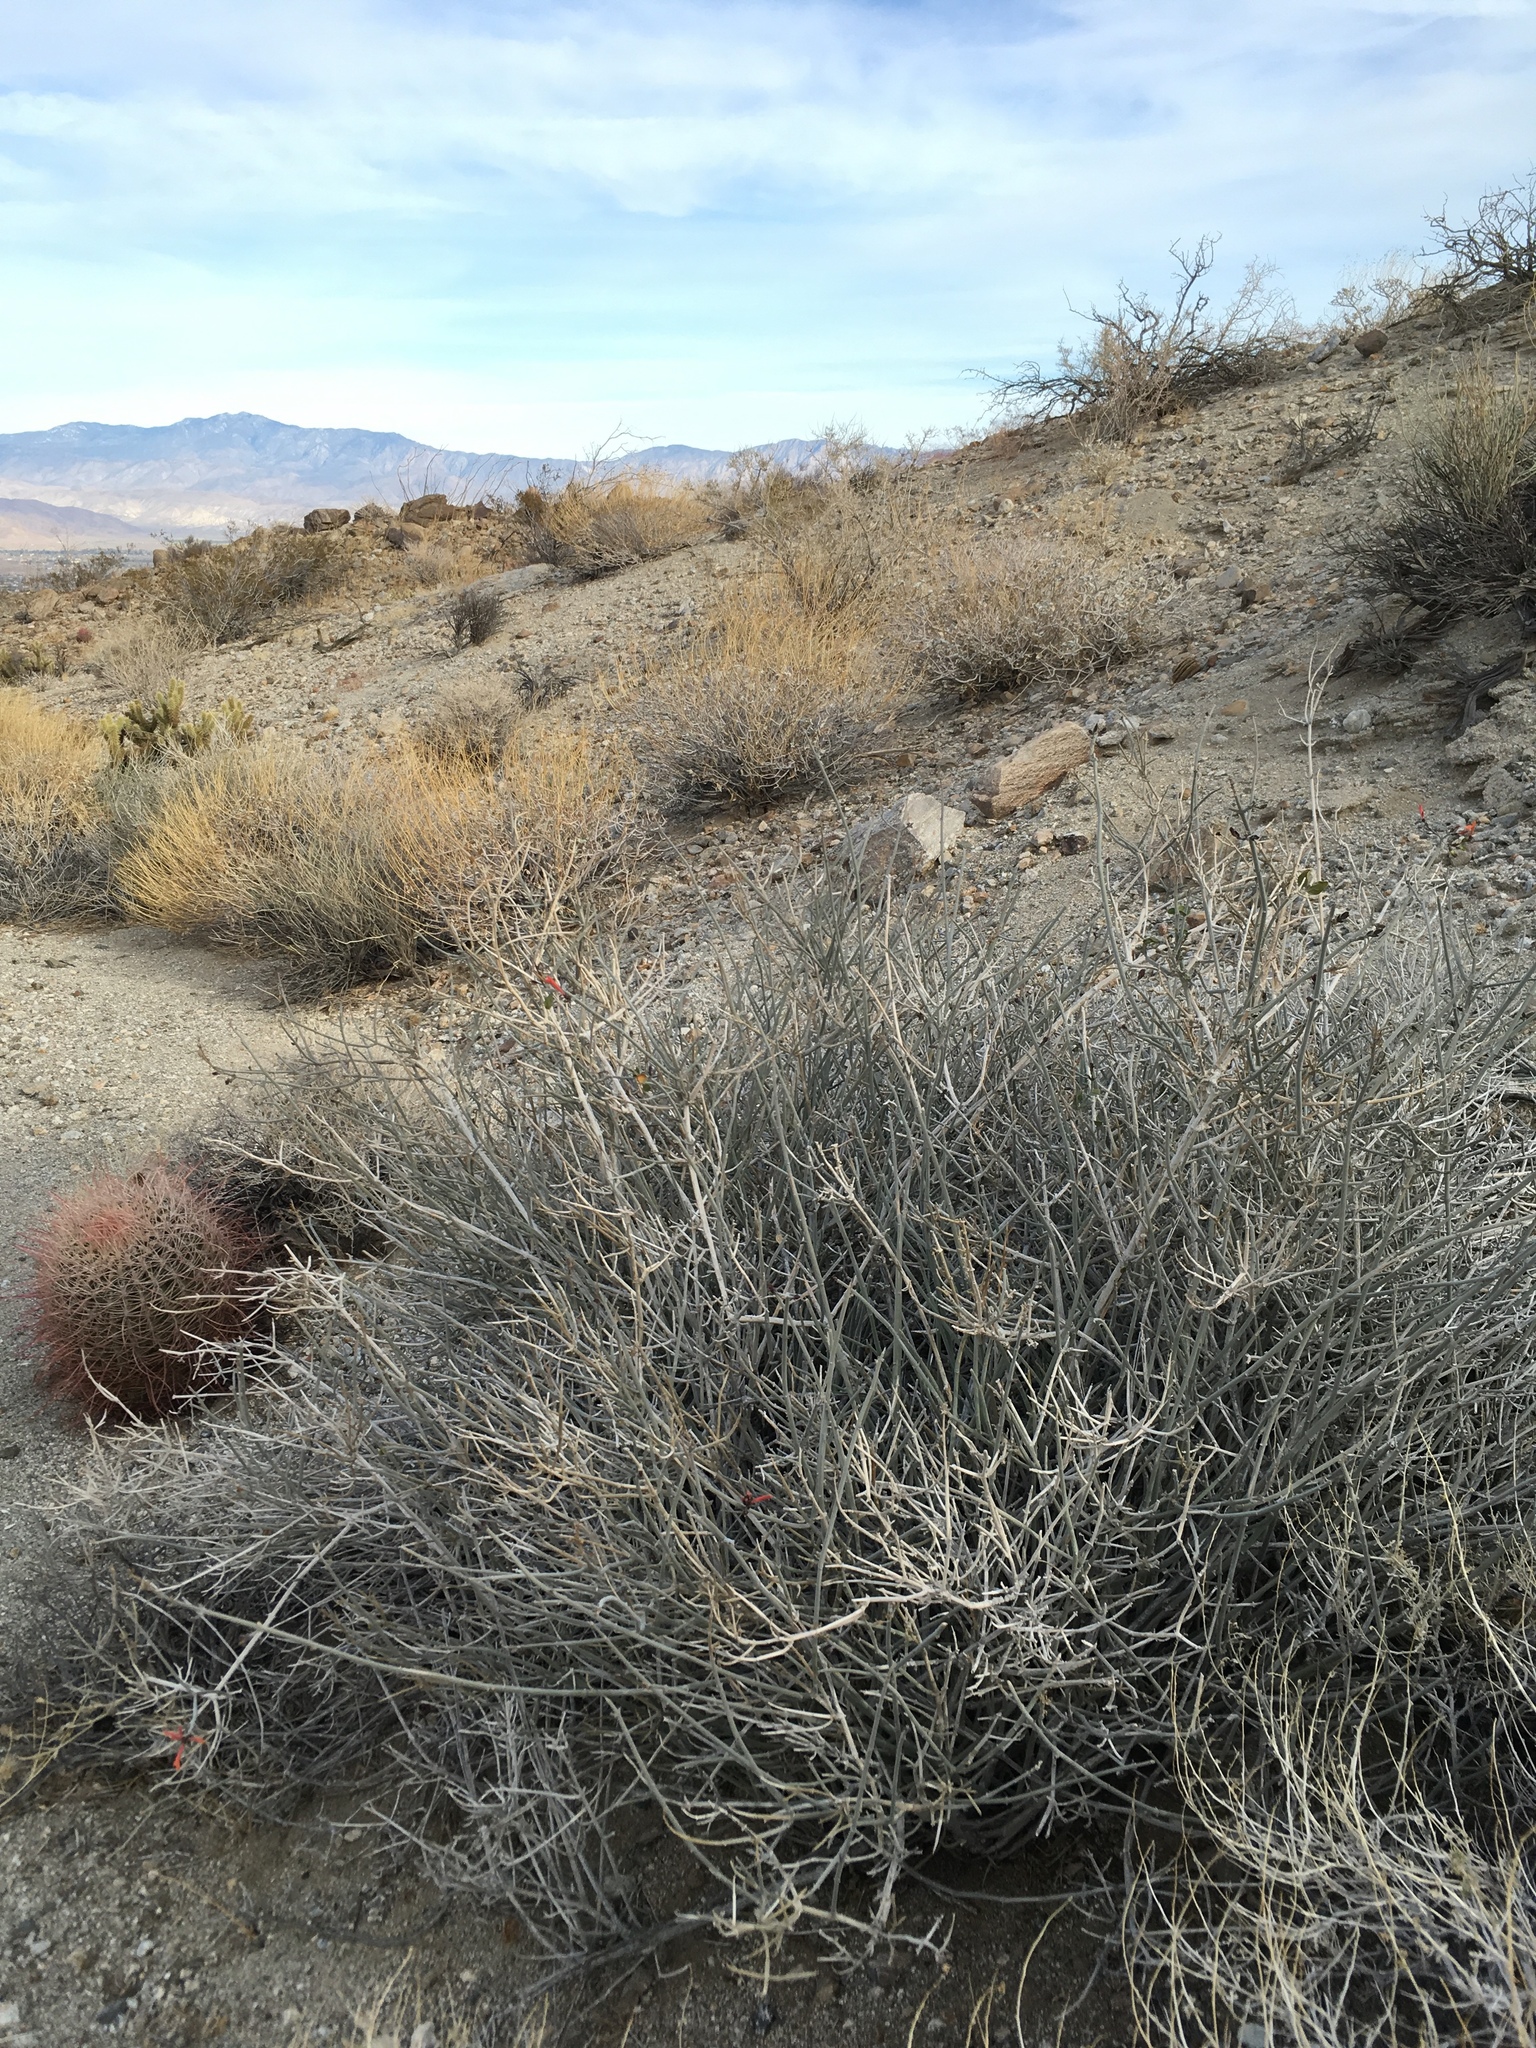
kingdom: Plantae
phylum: Tracheophyta
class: Magnoliopsida
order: Lamiales
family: Acanthaceae
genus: Justicia
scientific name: Justicia californica
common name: Chuparosa-honeysuckle
